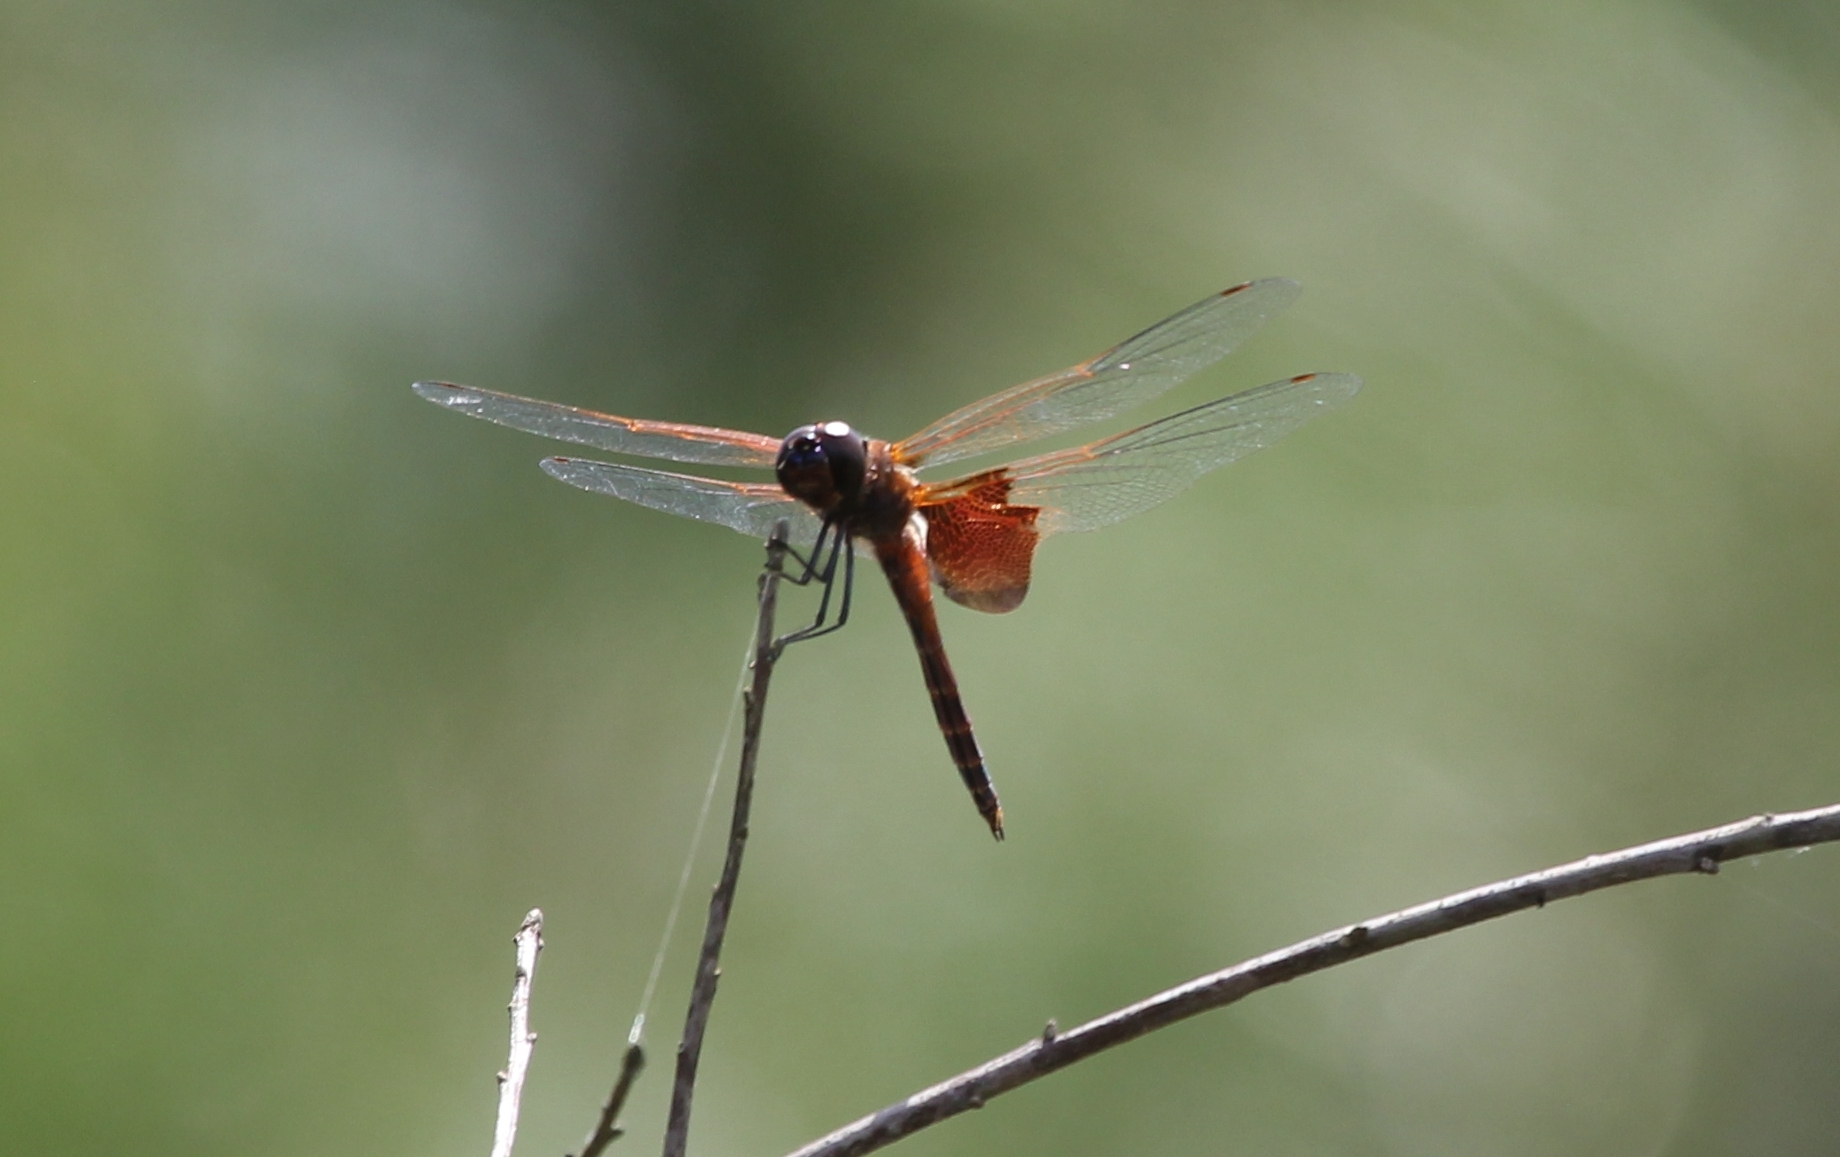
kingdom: Animalia
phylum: Arthropoda
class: Insecta
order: Odonata
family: Libellulidae
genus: Tramea
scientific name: Tramea carolina
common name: Carolina saddlebags
